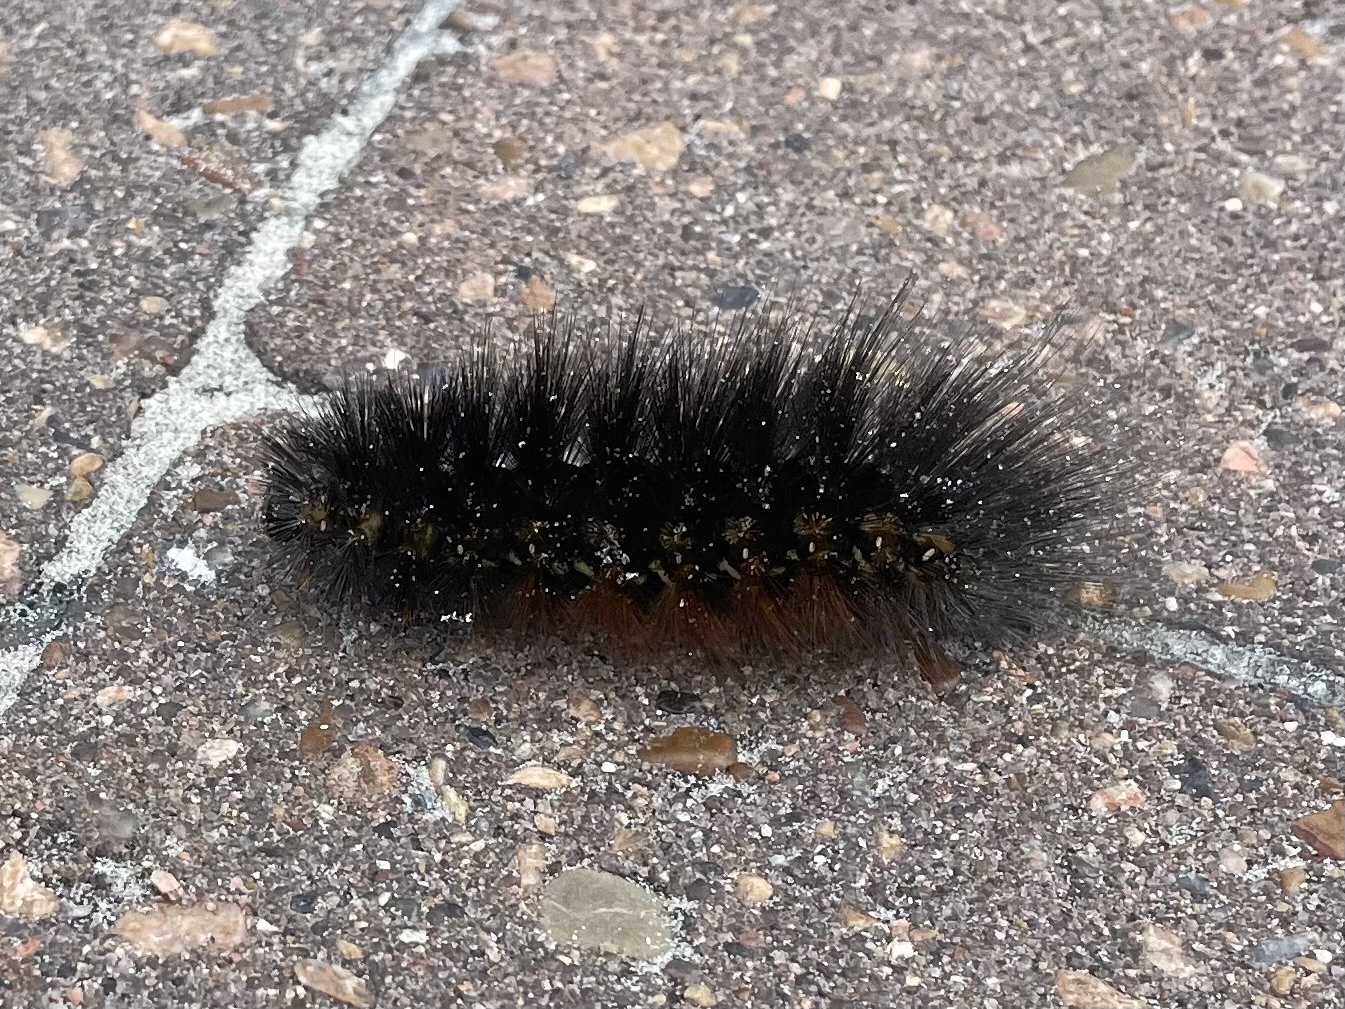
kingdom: Animalia
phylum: Arthropoda
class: Insecta
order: Lepidoptera
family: Erebidae
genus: Estigmene
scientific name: Estigmene acrea
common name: Salt marsh moth
